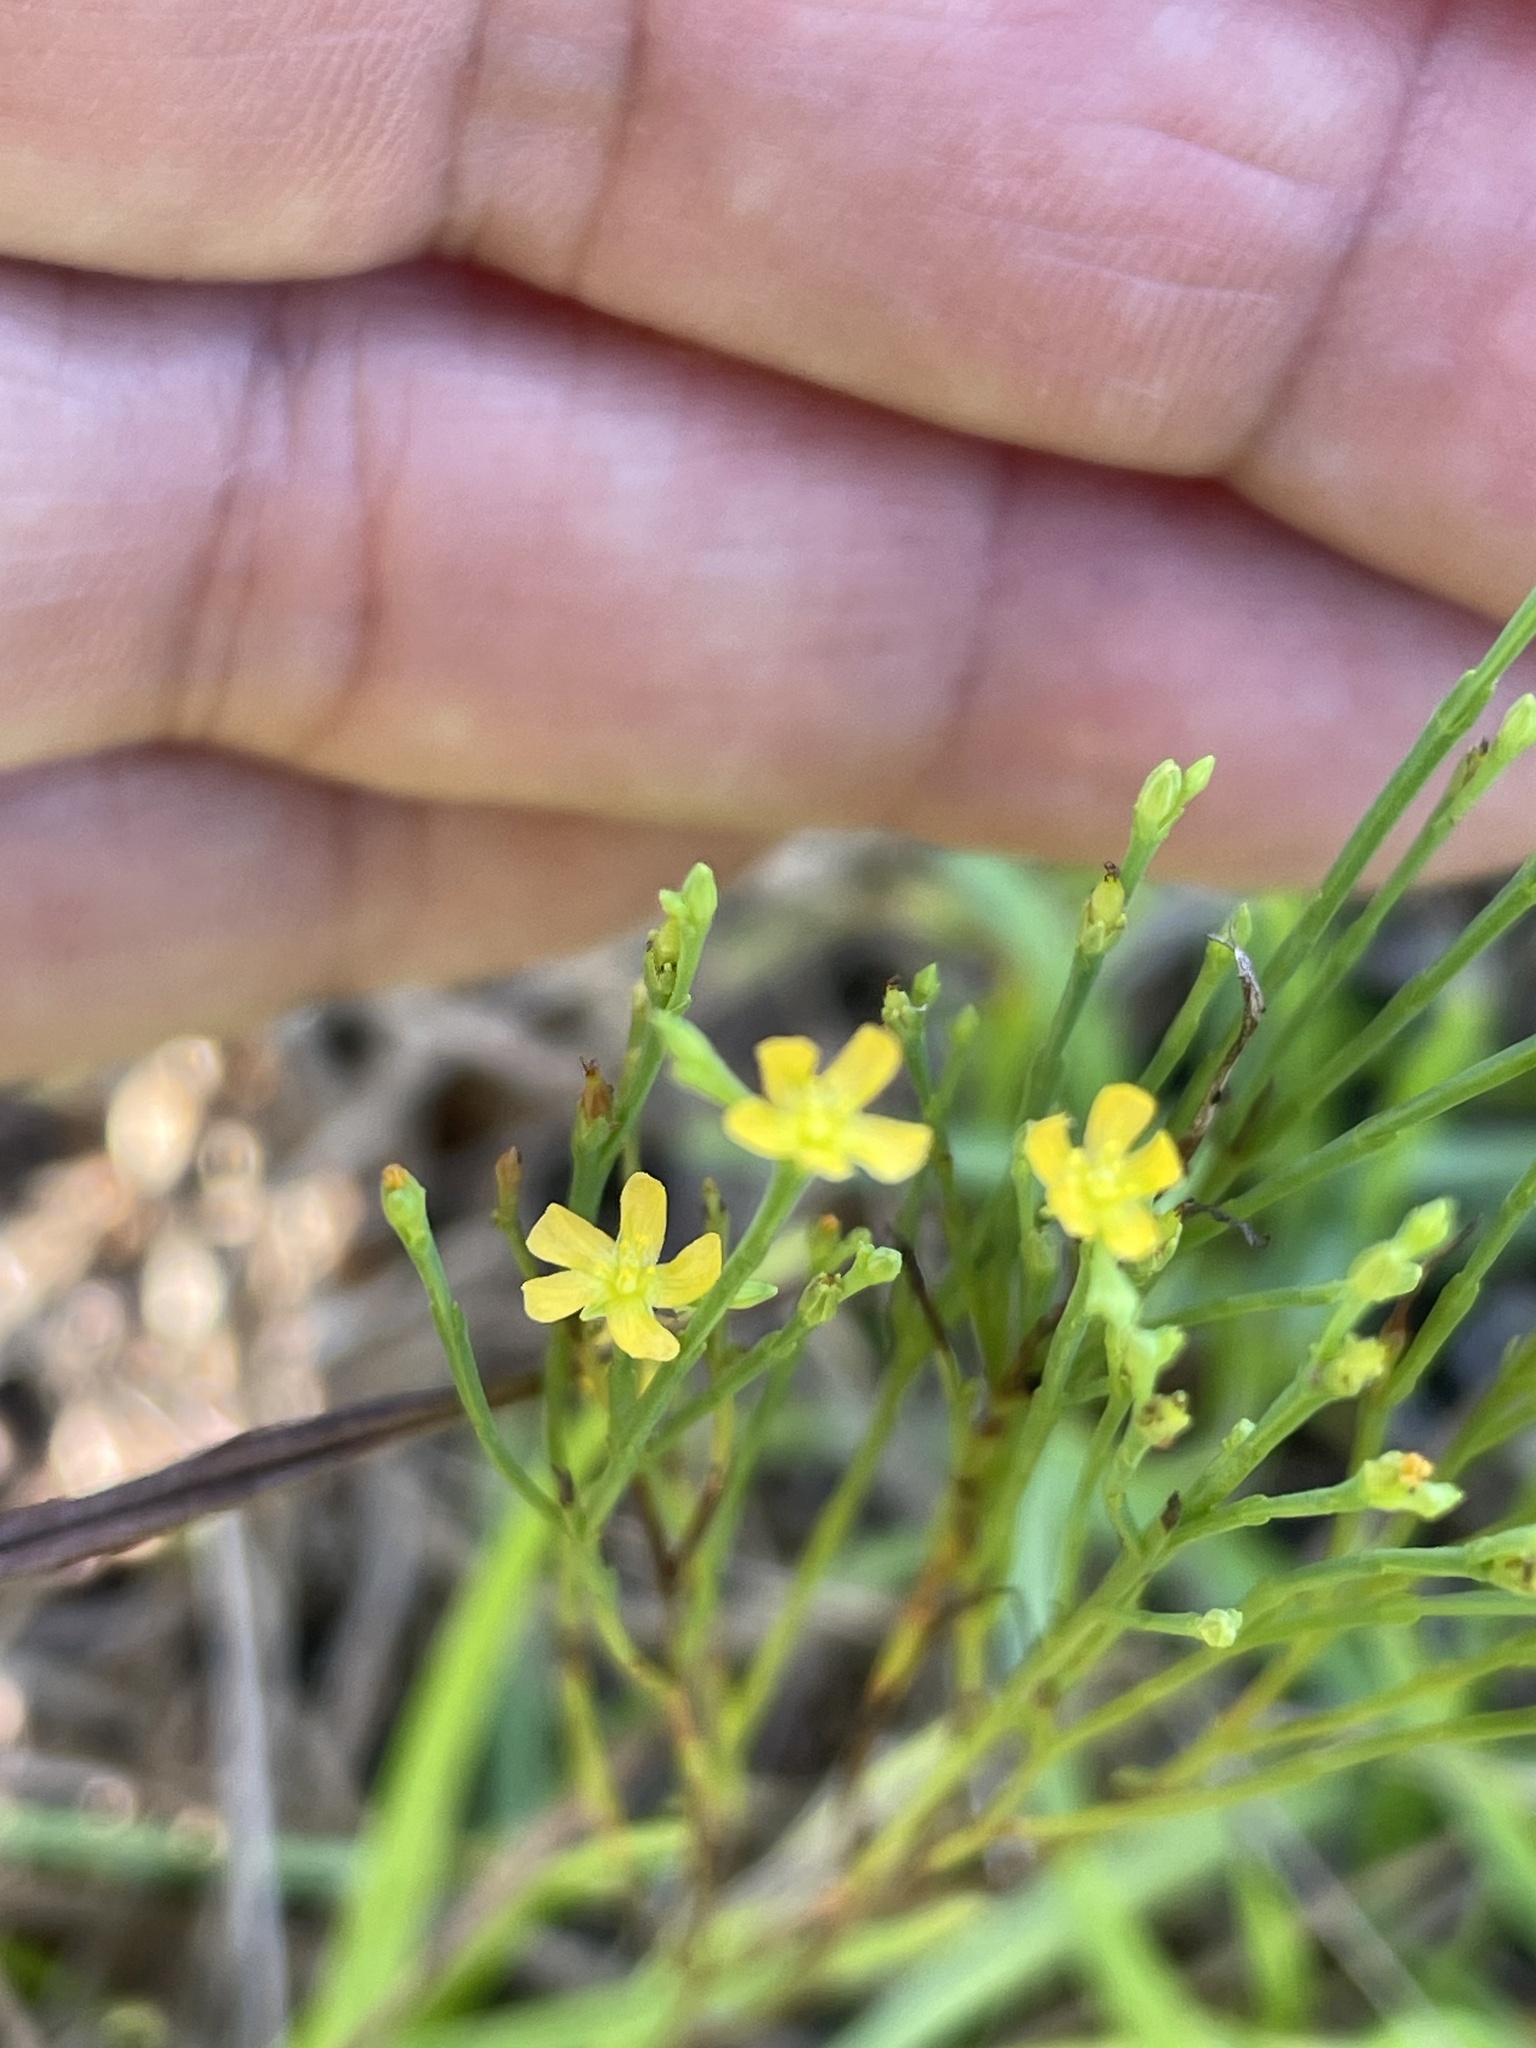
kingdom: Plantae
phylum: Tracheophyta
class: Magnoliopsida
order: Malpighiales
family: Hypericaceae
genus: Hypericum
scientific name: Hypericum gentianoides
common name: Gentian-leaved st. john's-wort
